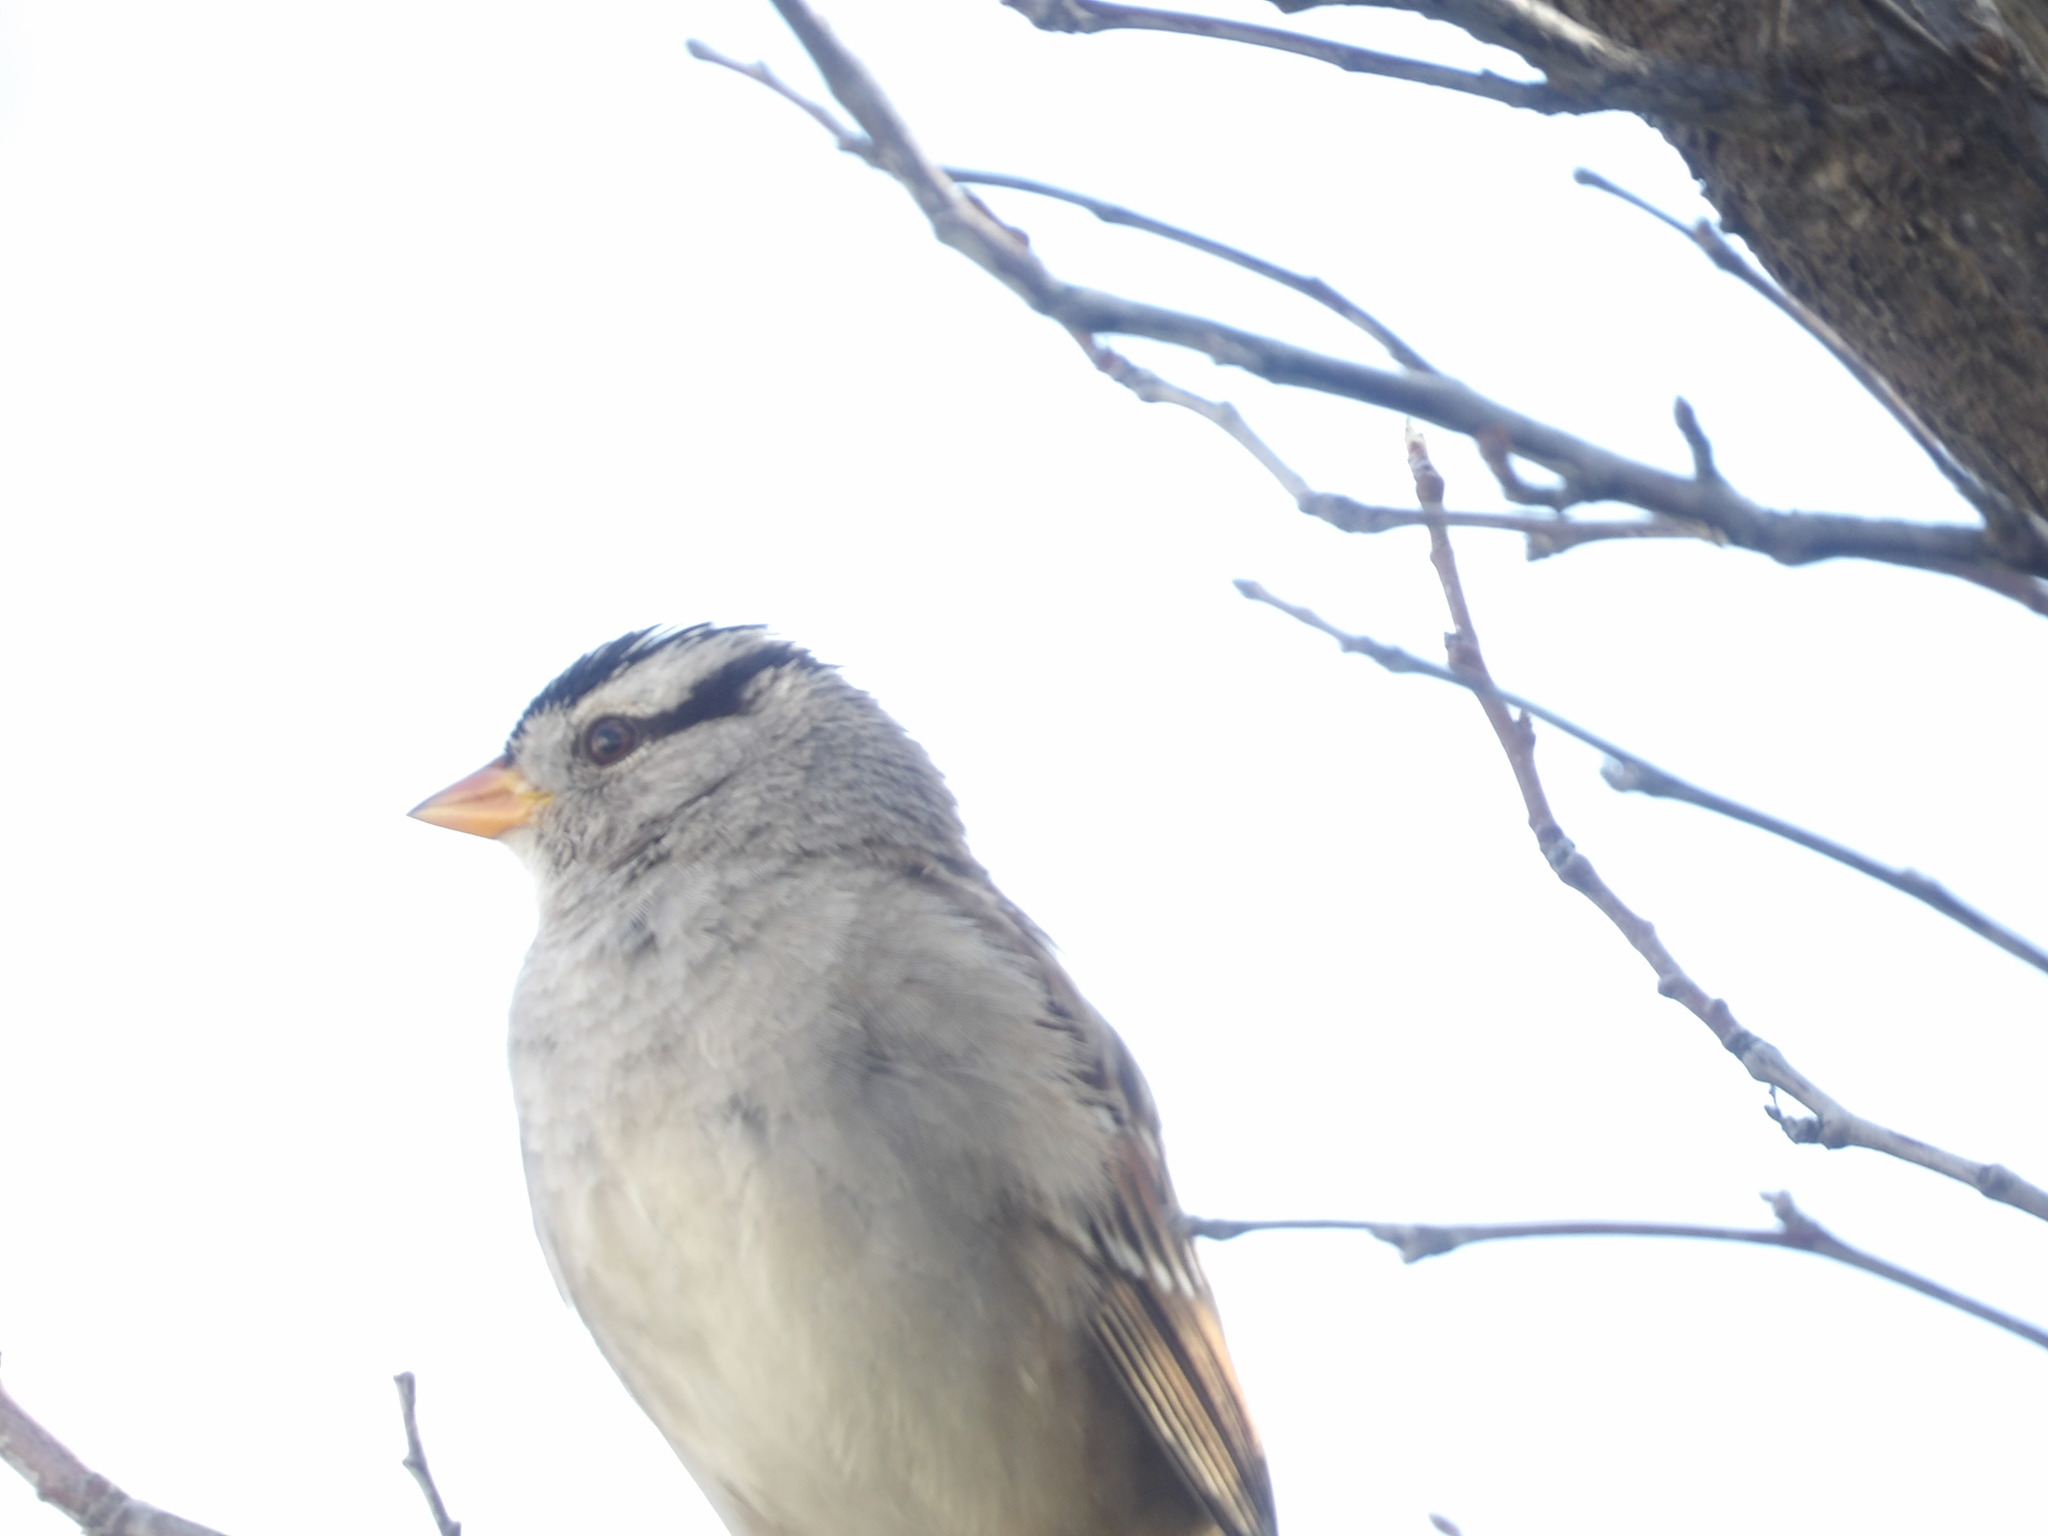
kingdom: Animalia
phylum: Chordata
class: Aves
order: Passeriformes
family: Passerellidae
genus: Zonotrichia
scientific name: Zonotrichia leucophrys
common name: White-crowned sparrow
